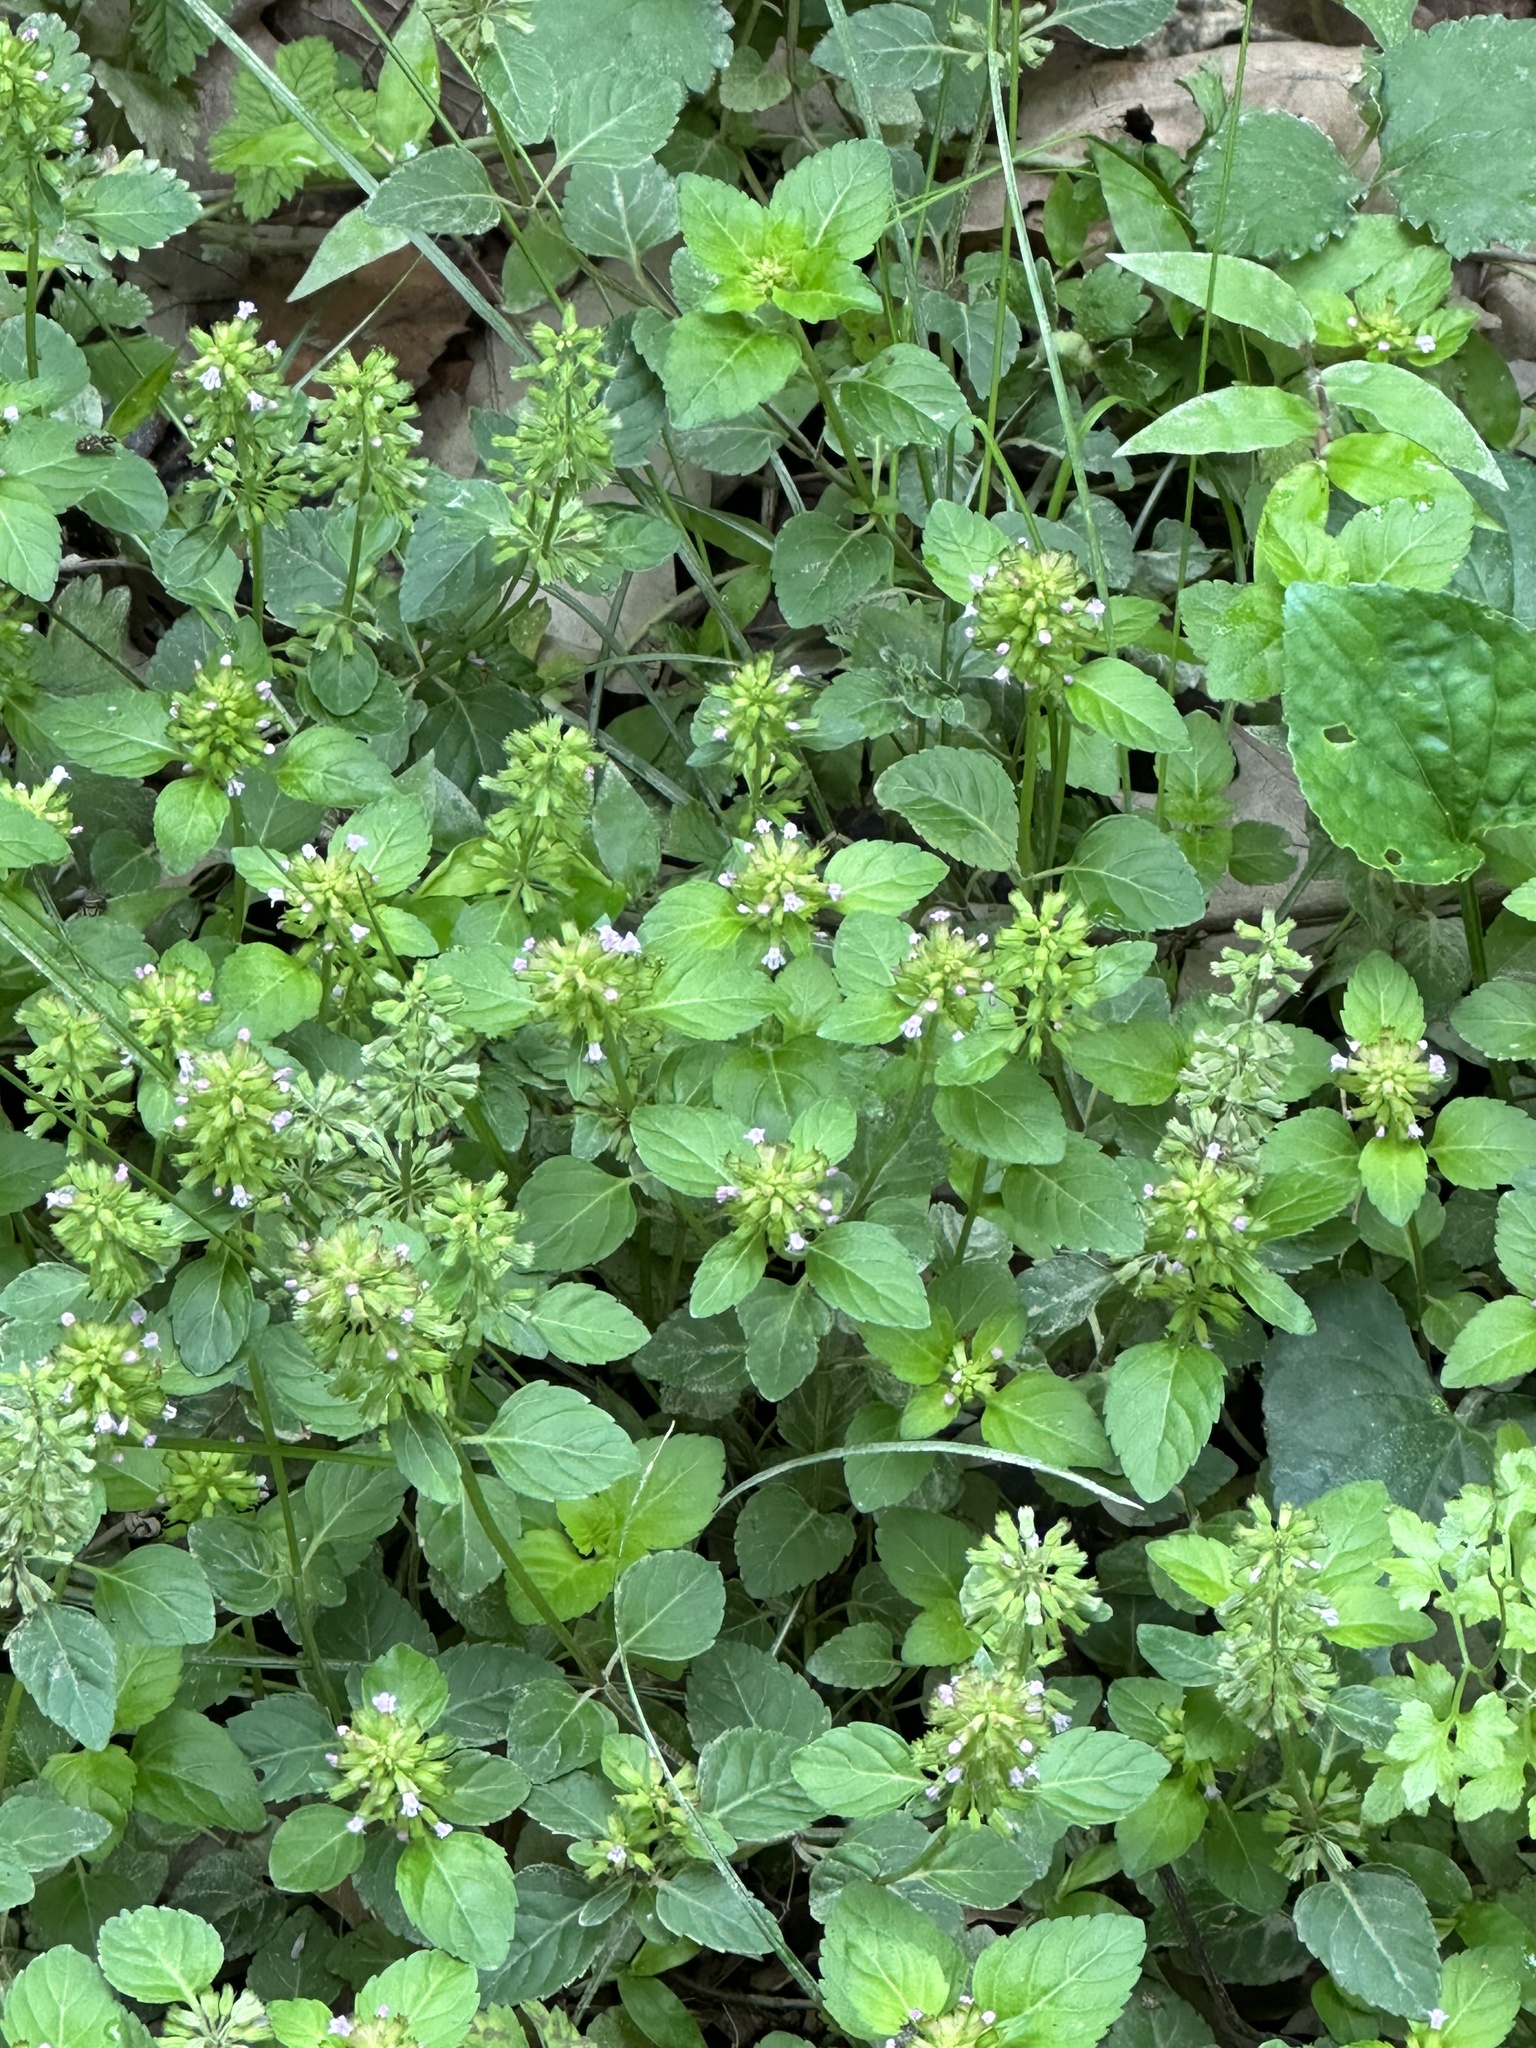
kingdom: Plantae
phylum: Tracheophyta
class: Magnoliopsida
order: Lamiales
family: Lamiaceae
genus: Clinopodium
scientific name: Clinopodium gracile
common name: Slender wild basil
